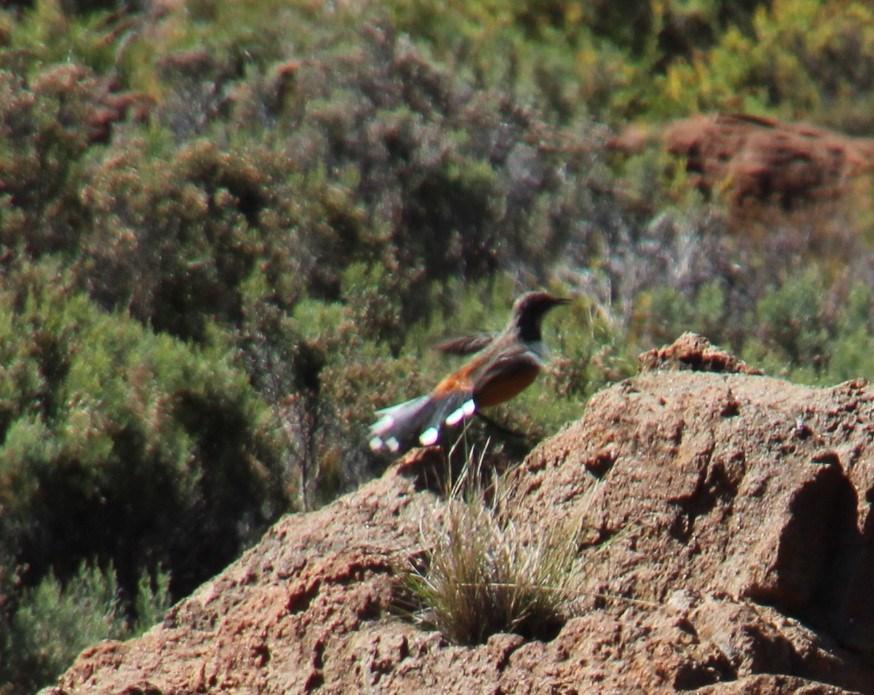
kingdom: Animalia
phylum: Chordata
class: Aves
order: Passeriformes
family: Chaetopidae
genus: Chaetops
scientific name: Chaetops aurantius
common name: Drakensberg rockjumper
